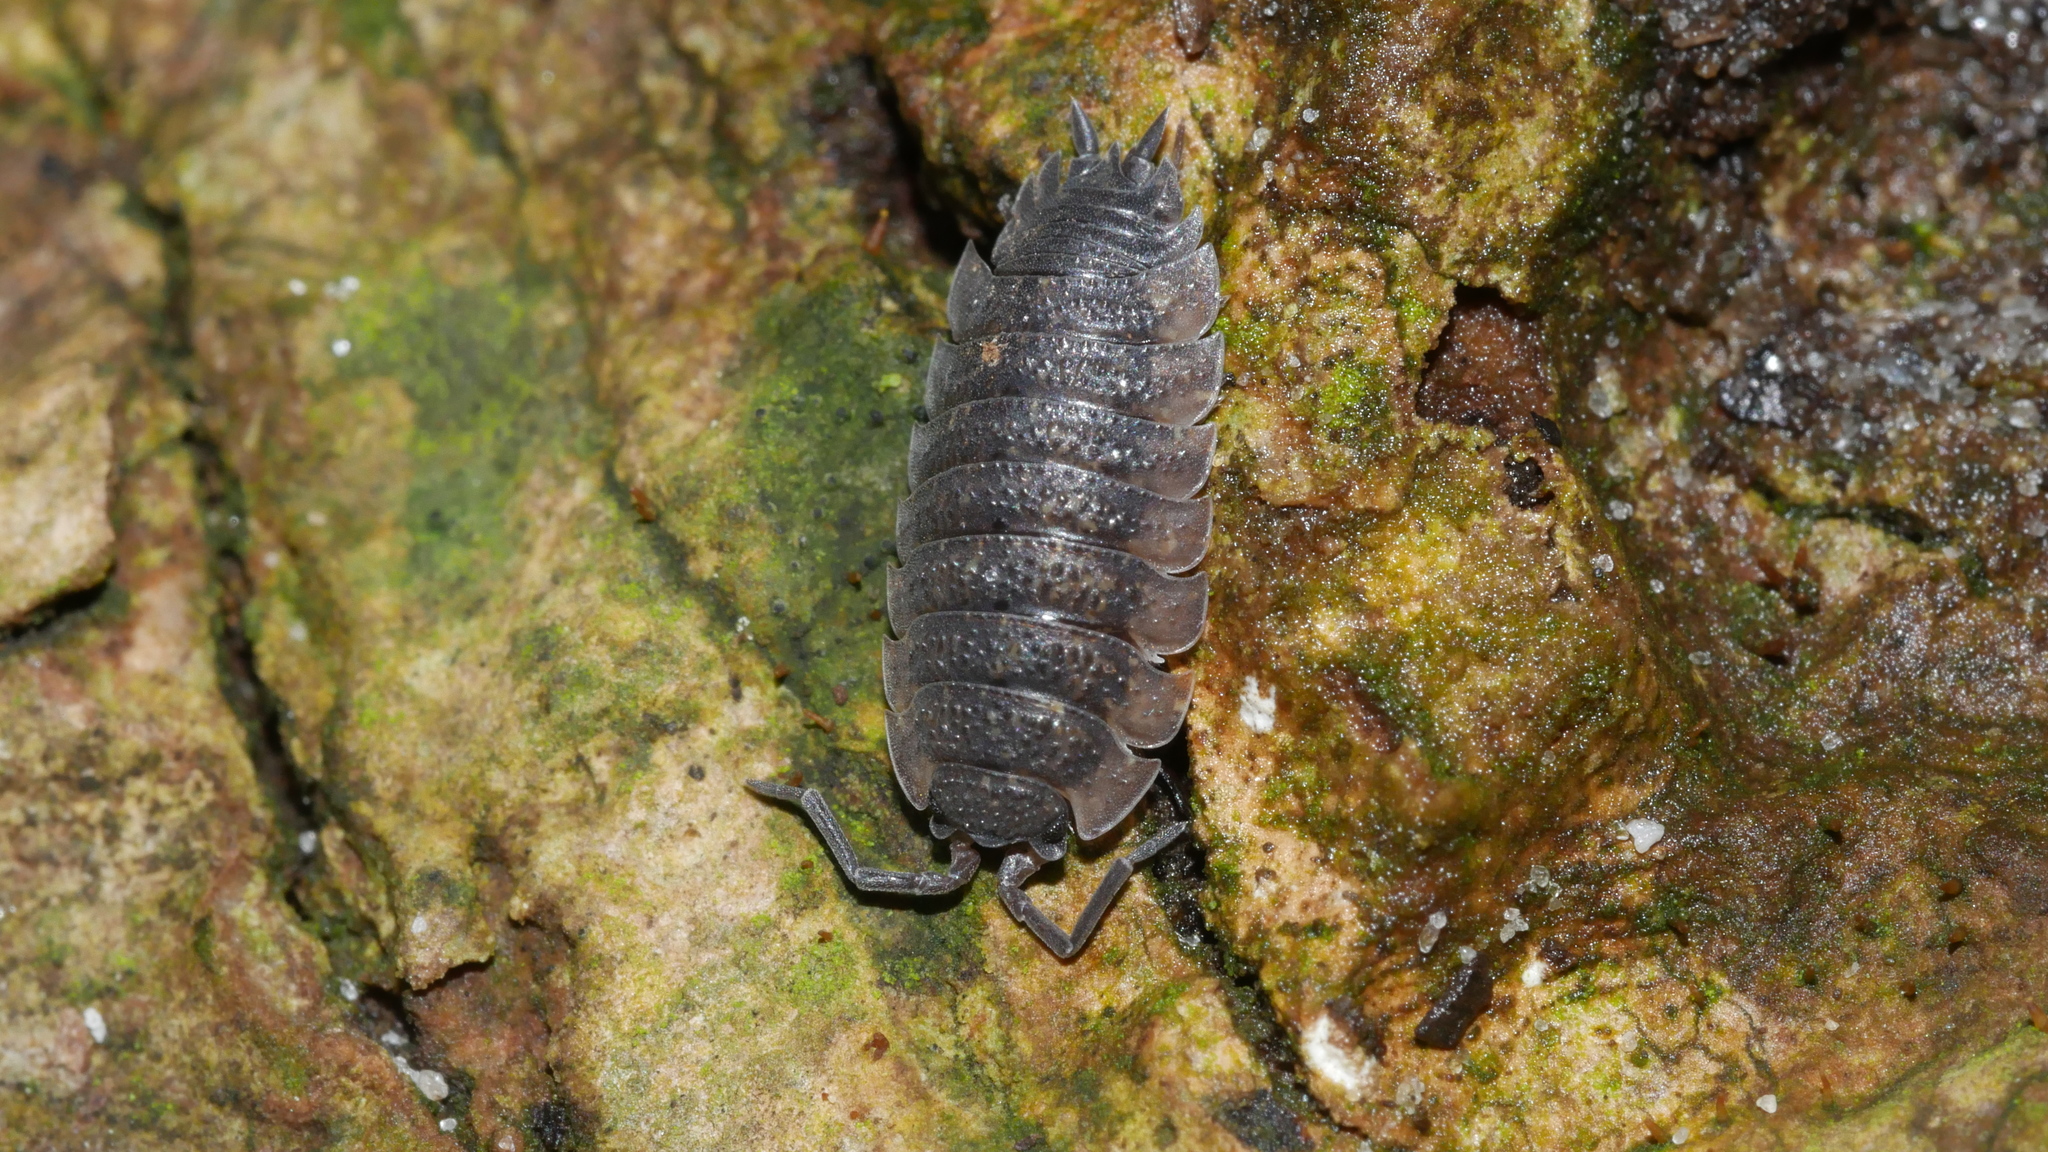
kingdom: Animalia
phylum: Arthropoda
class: Malacostraca
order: Isopoda
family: Porcellionidae
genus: Porcellio
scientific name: Porcellio scaber
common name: Common rough woodlouse
